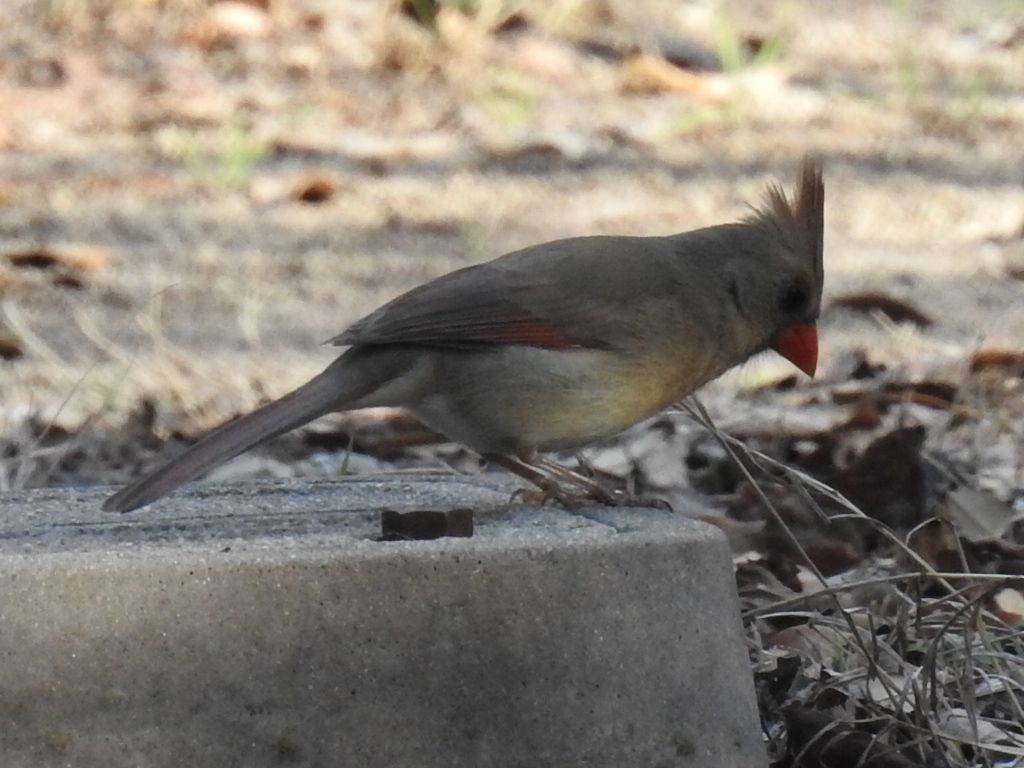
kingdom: Animalia
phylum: Chordata
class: Aves
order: Passeriformes
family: Cardinalidae
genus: Cardinalis
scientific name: Cardinalis cardinalis
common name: Northern cardinal
